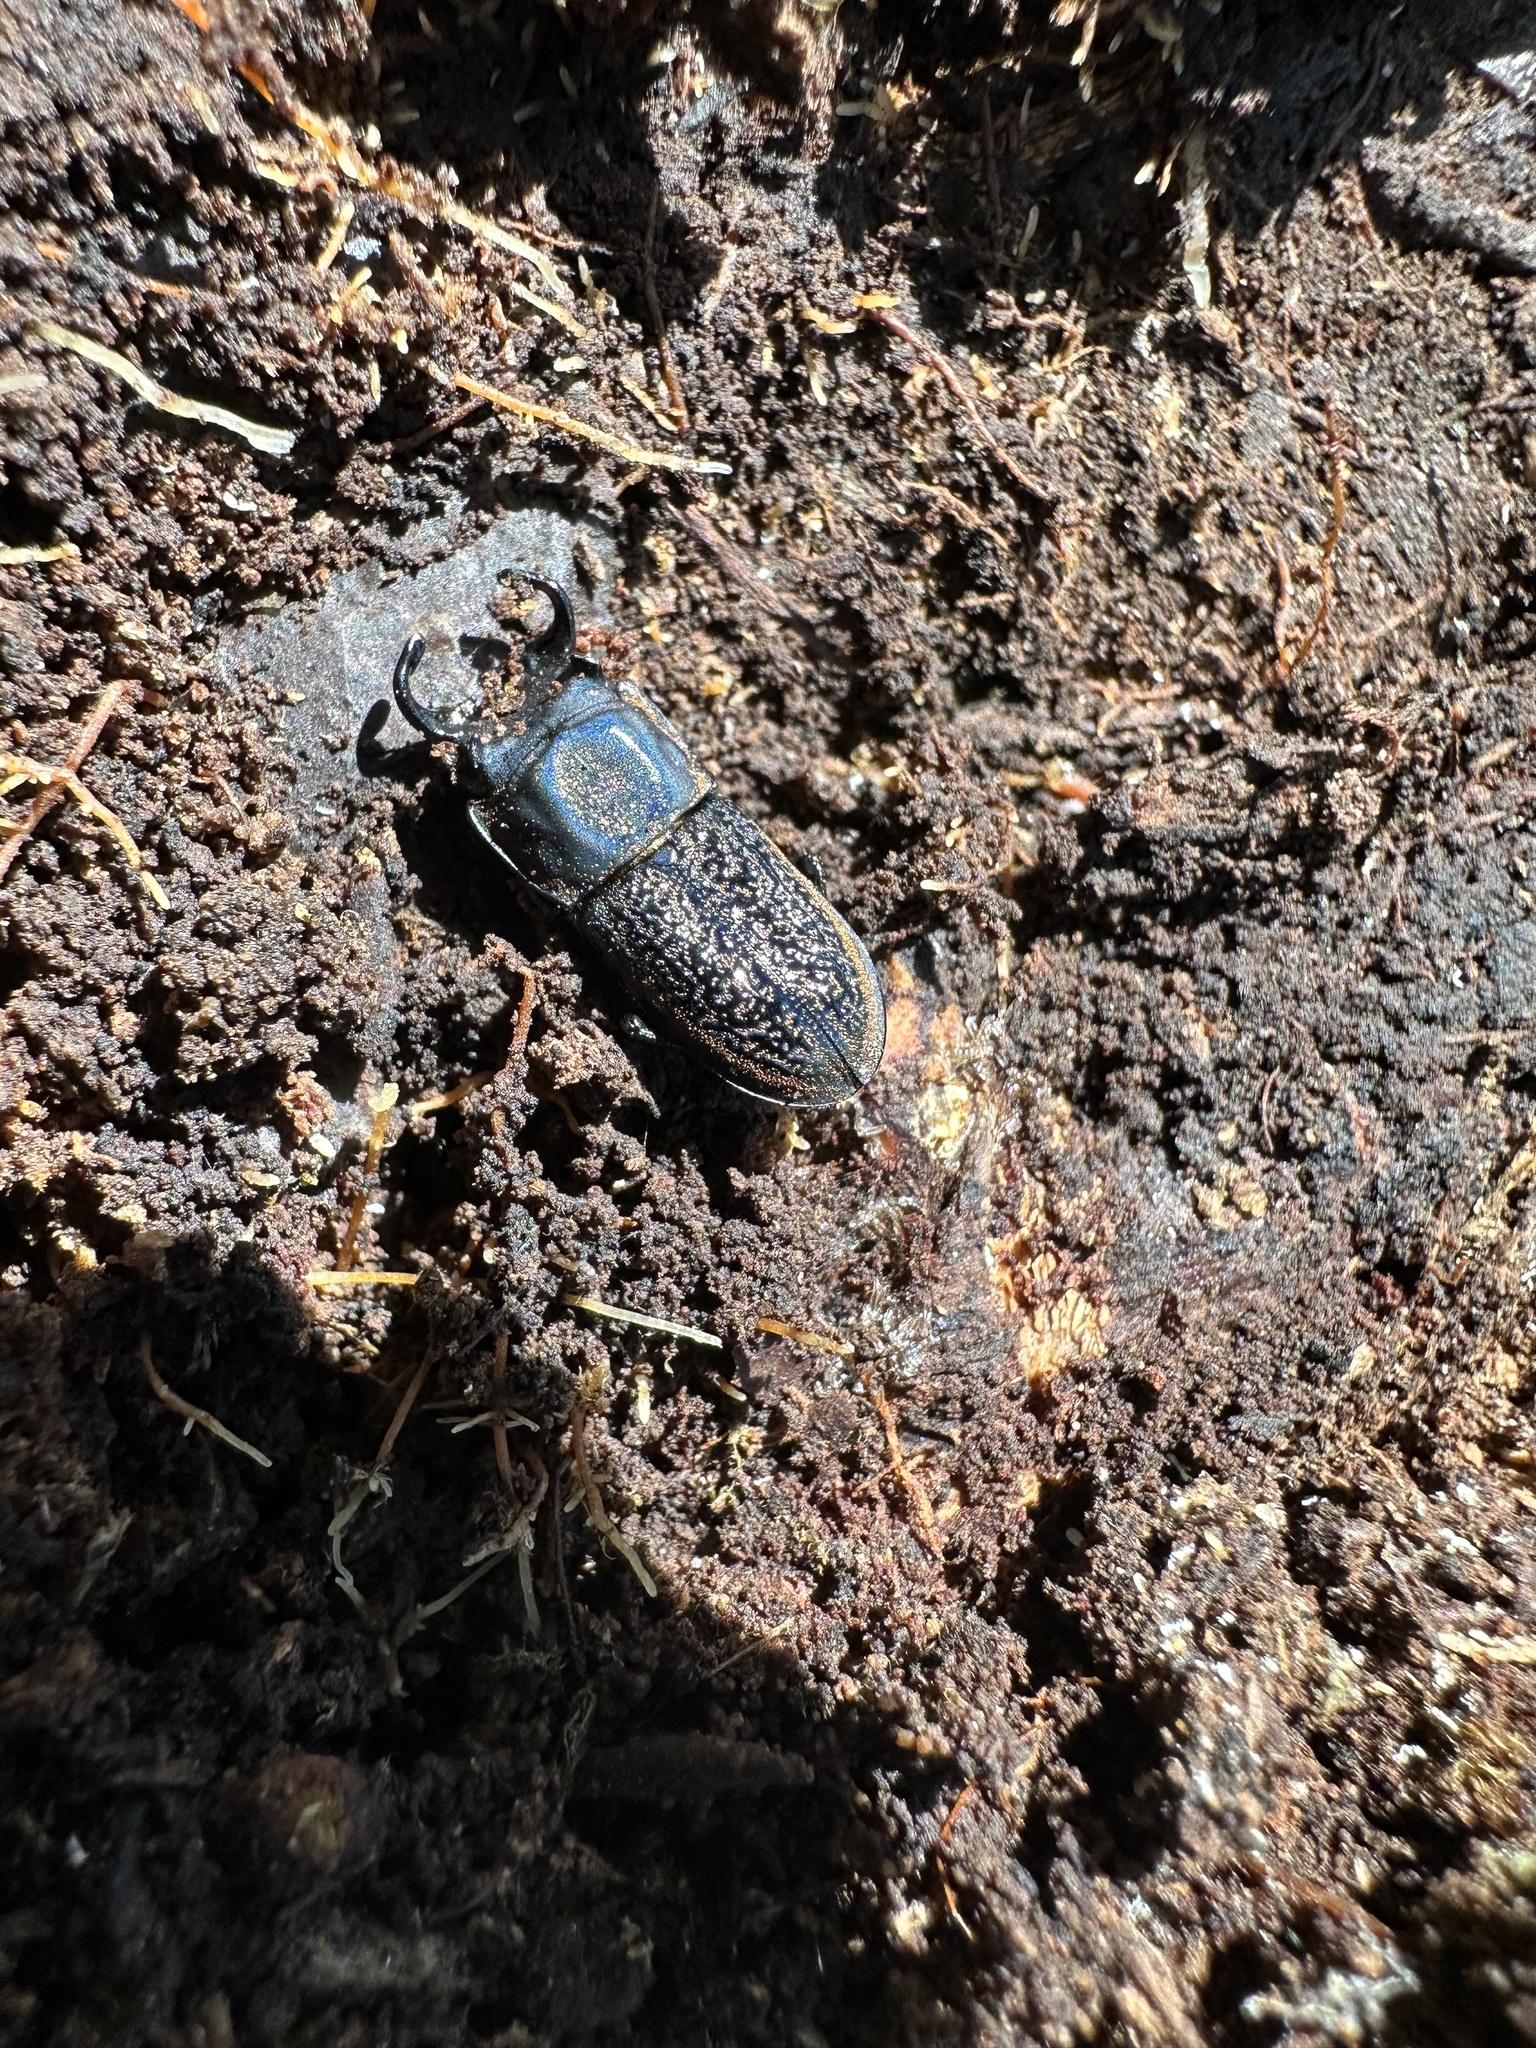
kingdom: Animalia
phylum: Arthropoda
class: Insecta
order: Coleoptera
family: Lucanidae
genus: Pycnosiphorus
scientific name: Pycnosiphorus lessonii
